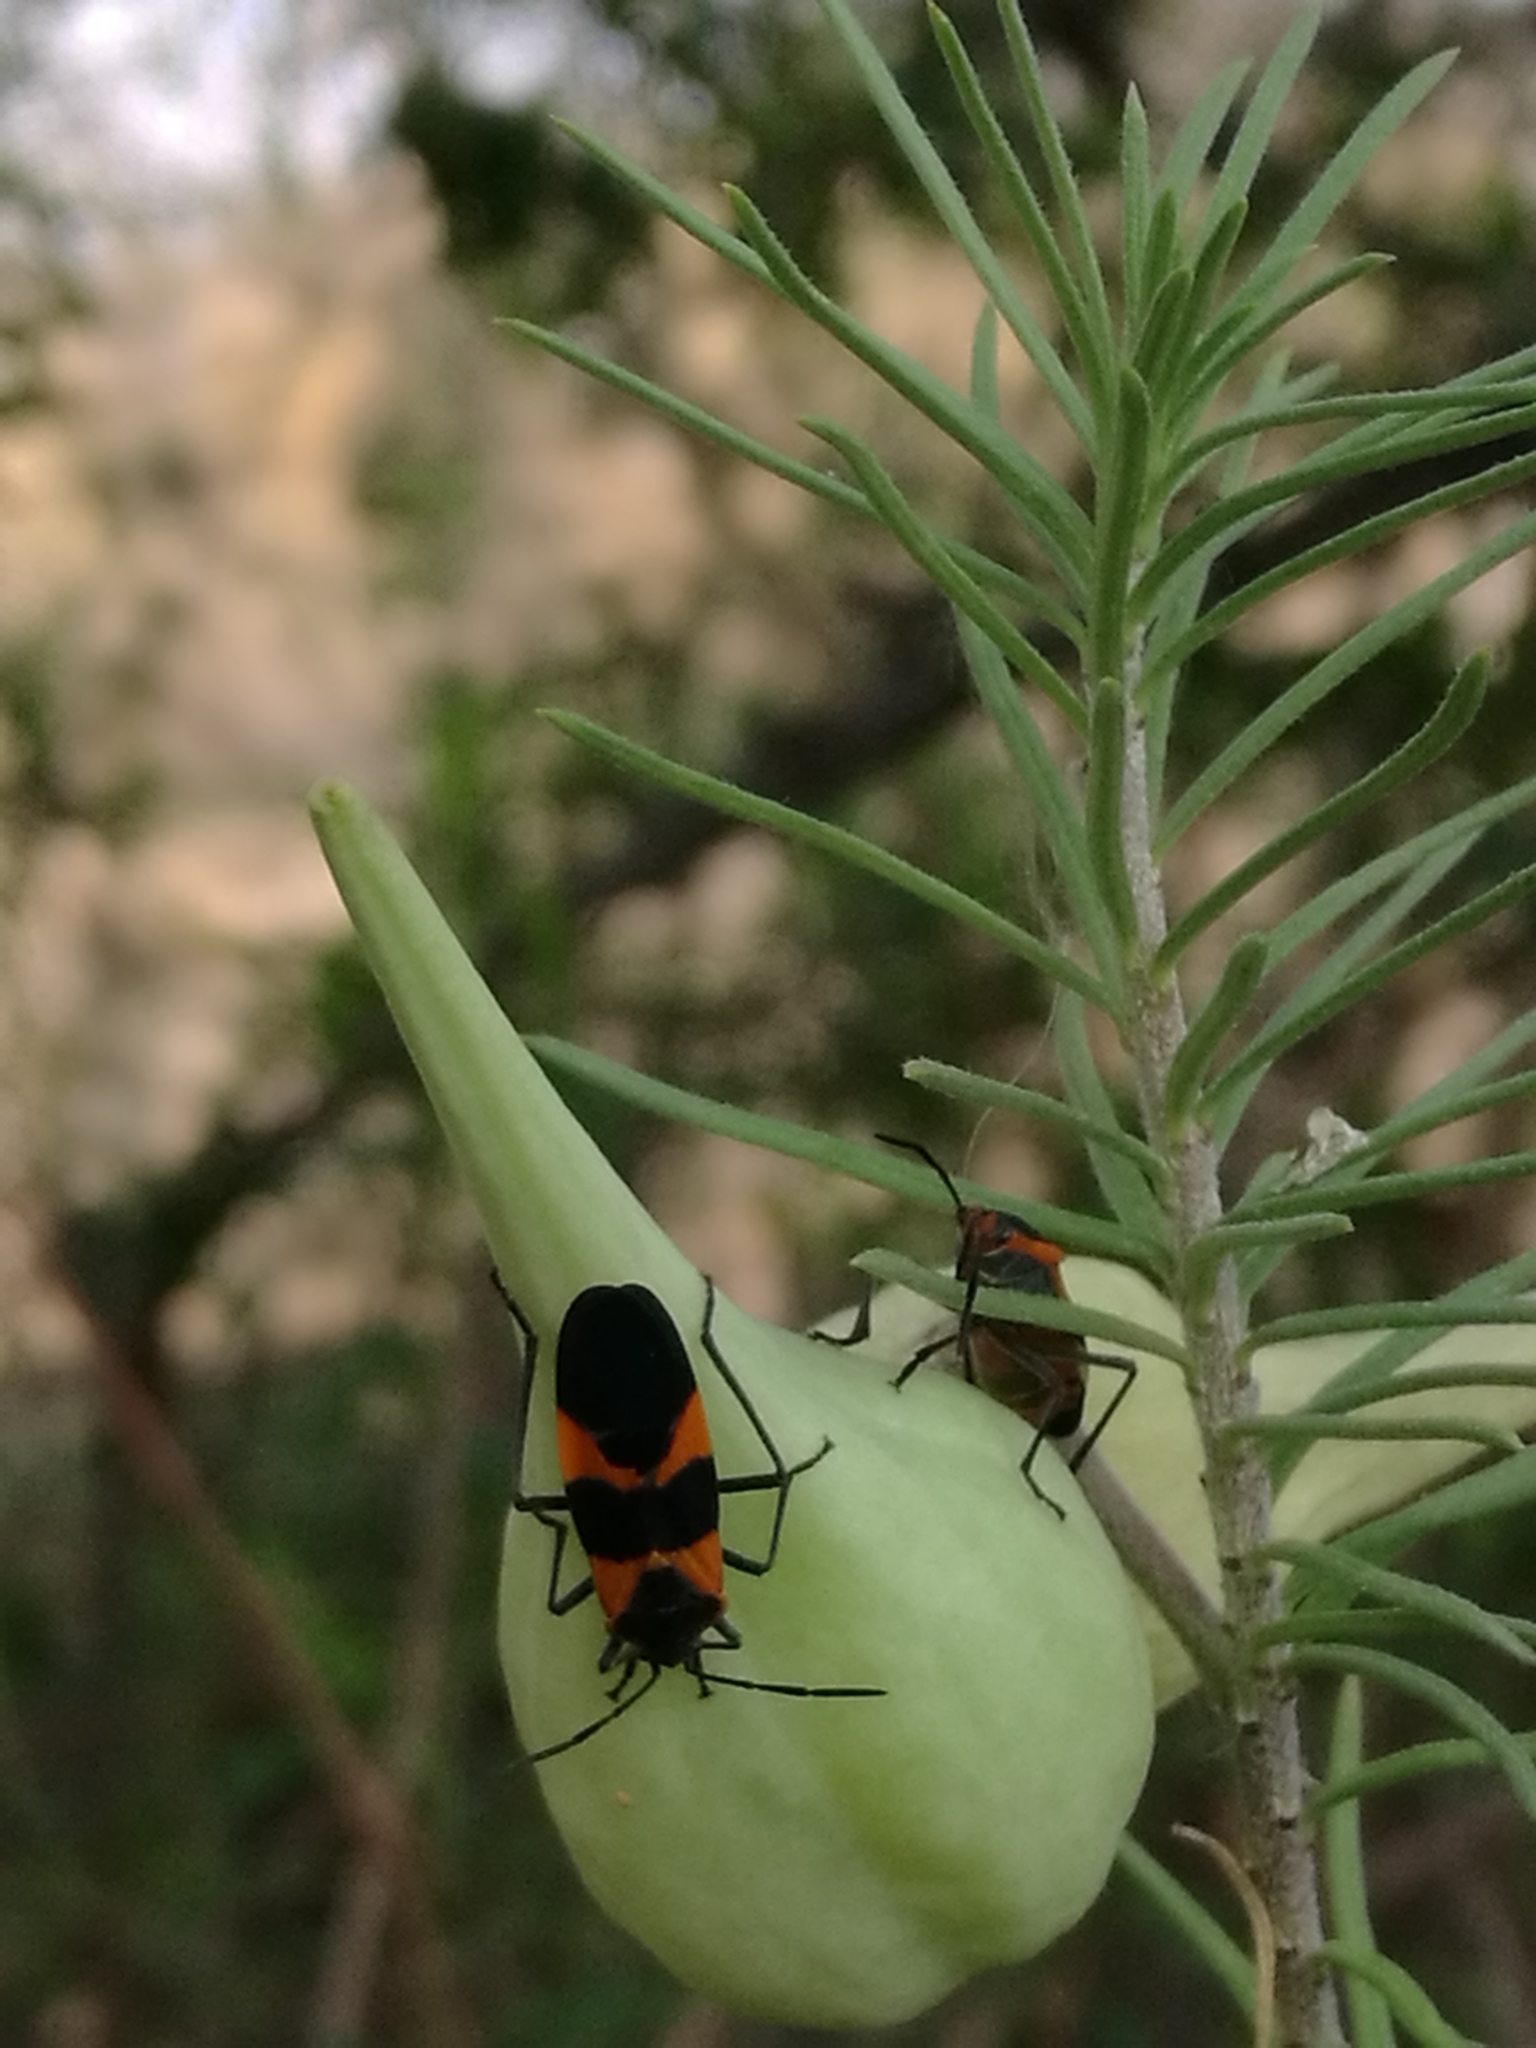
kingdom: Animalia
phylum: Arthropoda
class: Insecta
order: Hemiptera
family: Lygaeidae
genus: Oncopeltus
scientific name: Oncopeltus fasciatus
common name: Large milkweed bug
